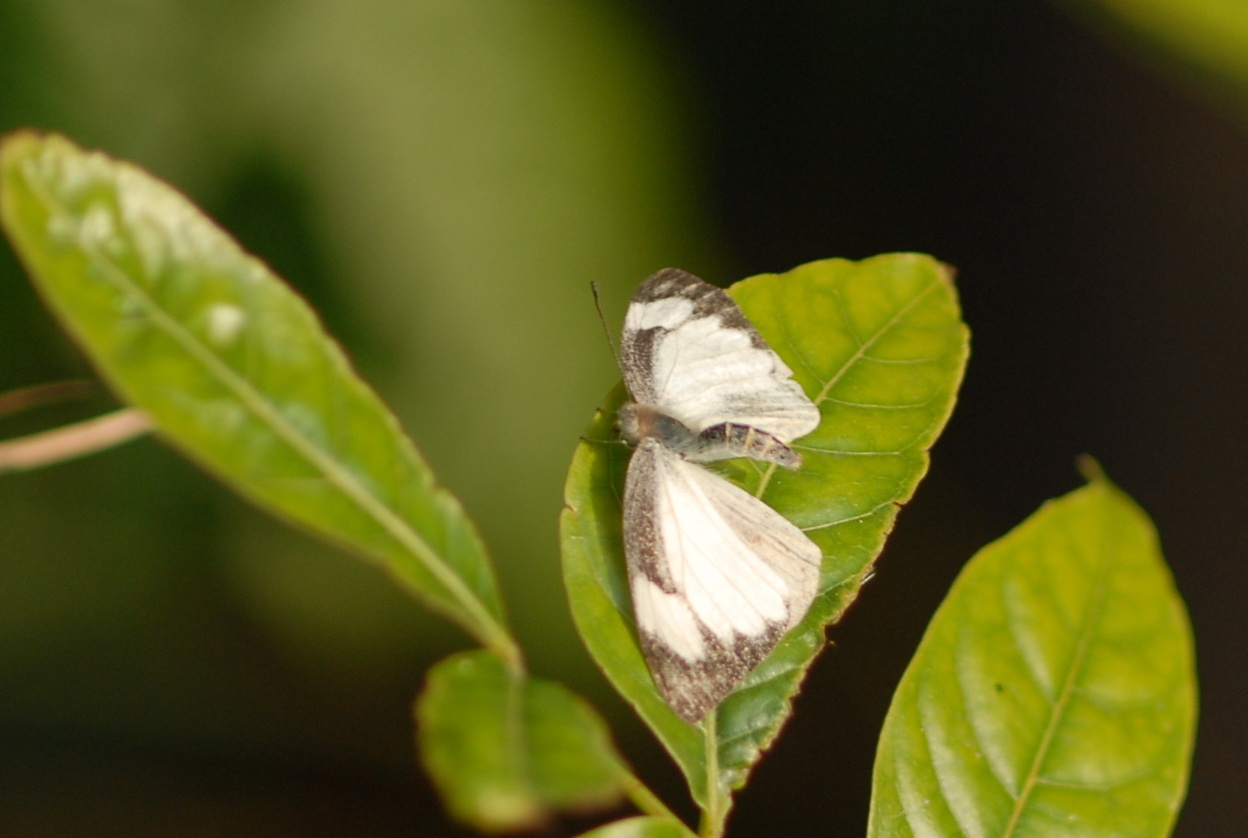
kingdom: Animalia
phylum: Arthropoda
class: Insecta
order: Lepidoptera
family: Pieridae
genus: Appias
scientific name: Appias olferna
